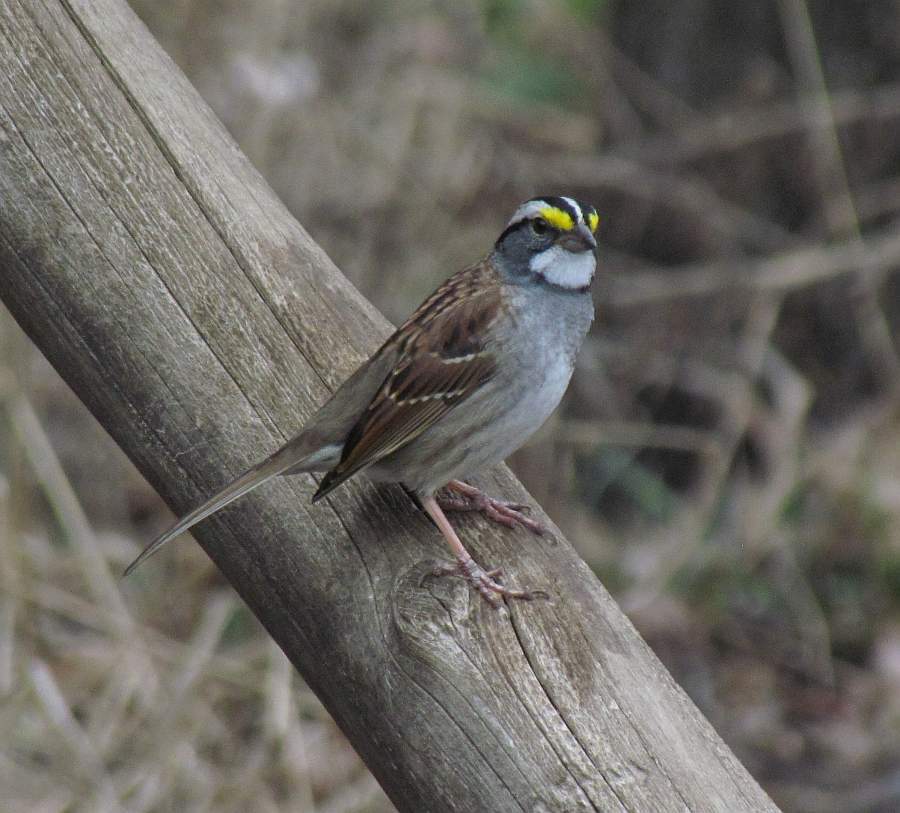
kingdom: Animalia
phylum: Chordata
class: Aves
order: Passeriformes
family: Passerellidae
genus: Zonotrichia
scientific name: Zonotrichia albicollis
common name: White-throated sparrow
